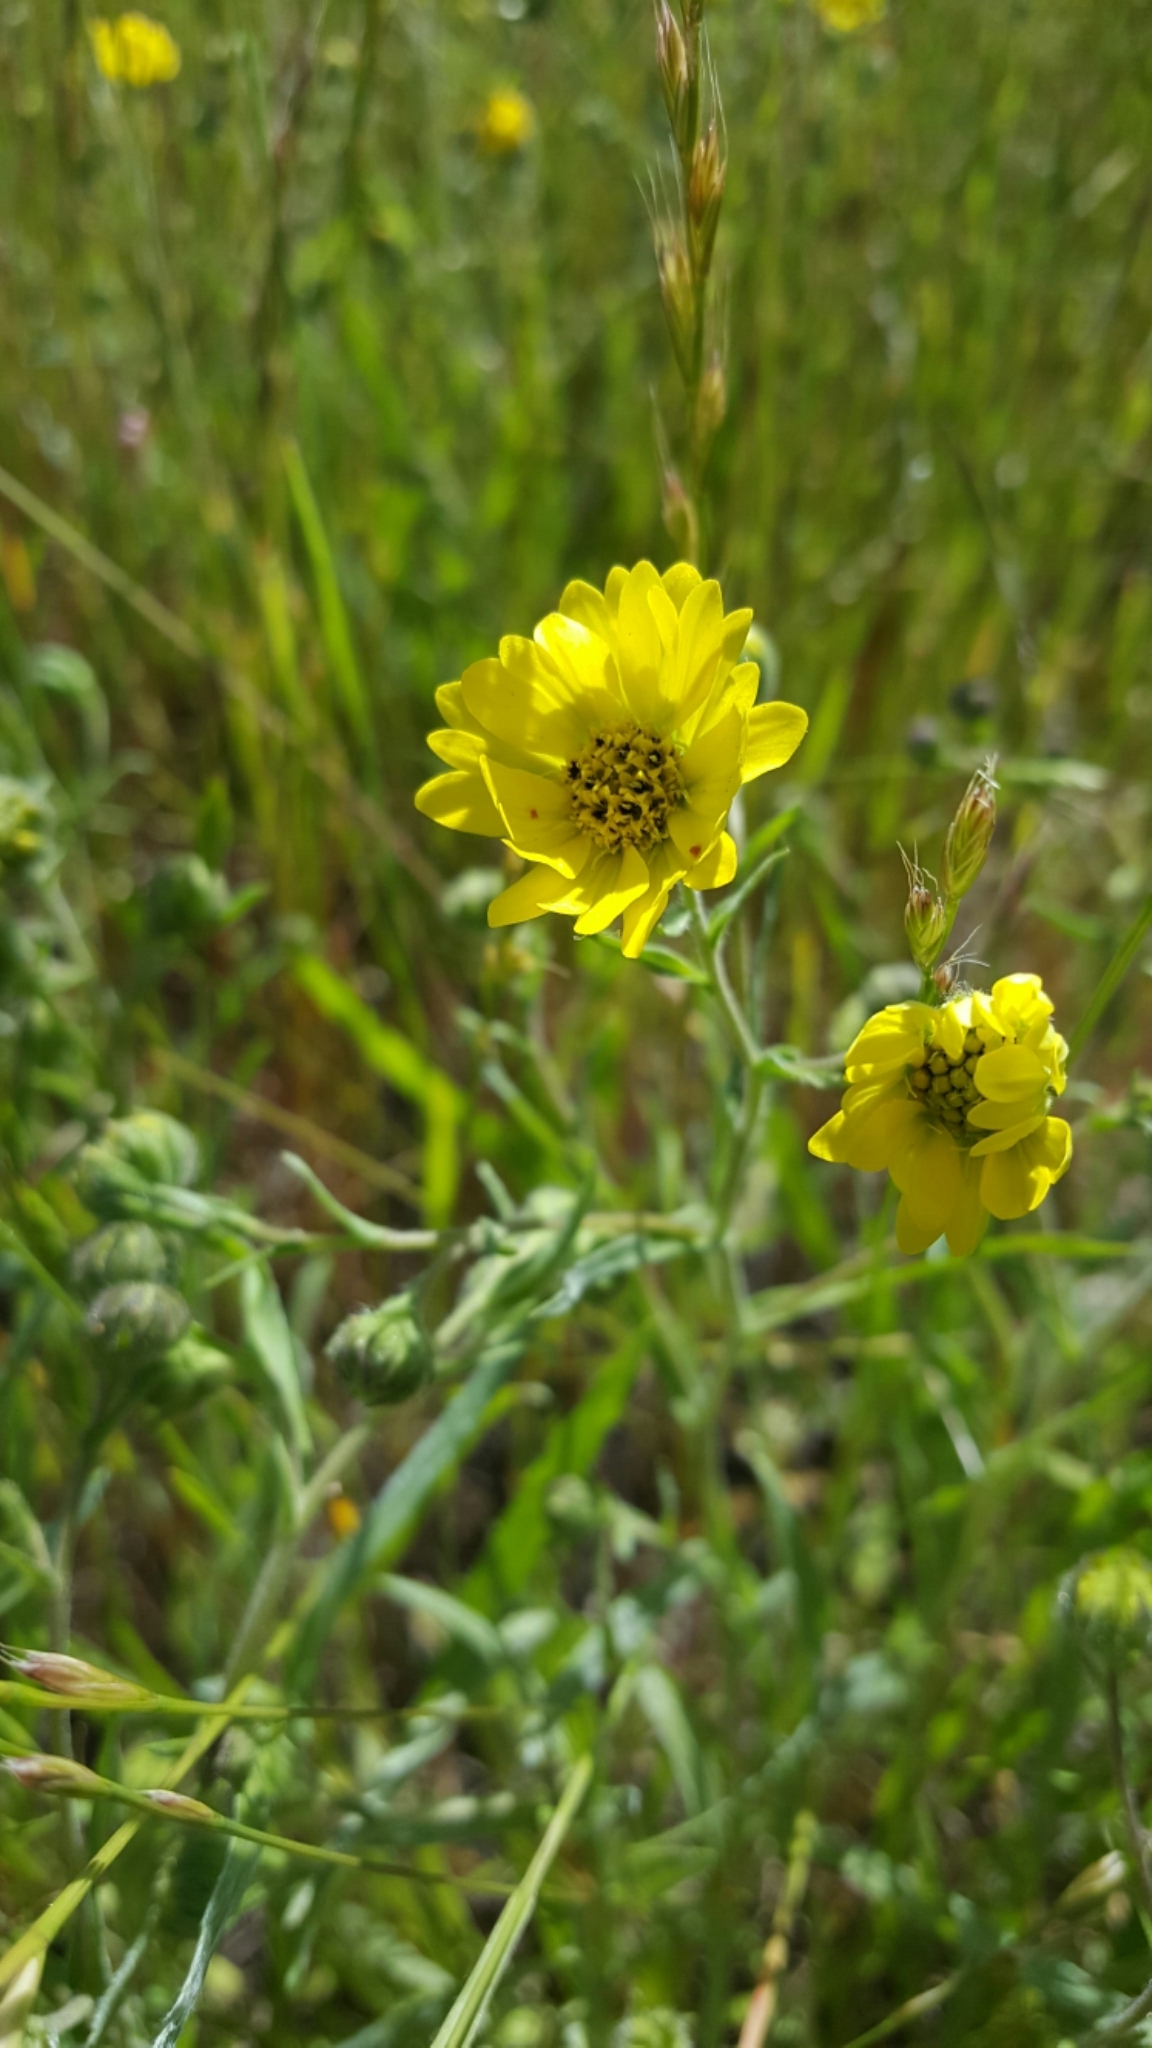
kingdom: Plantae
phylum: Tracheophyta
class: Magnoliopsida
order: Asterales
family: Asteraceae
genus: Hemizonia
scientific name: Hemizonia congesta
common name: Hayfield tarweed
